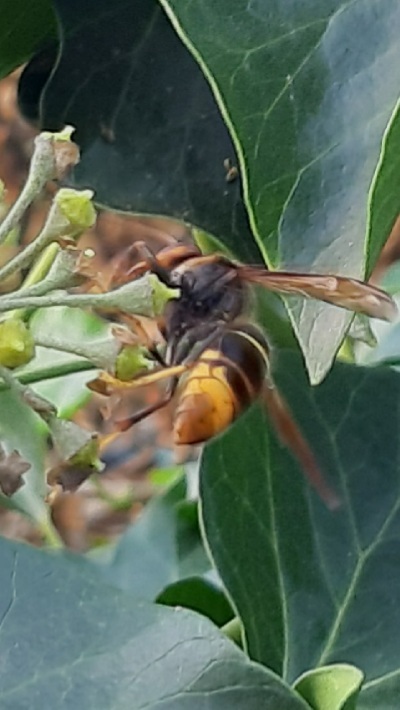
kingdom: Animalia
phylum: Arthropoda
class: Insecta
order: Hymenoptera
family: Vespidae
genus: Vespa
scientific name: Vespa velutina
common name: Asian hornet
